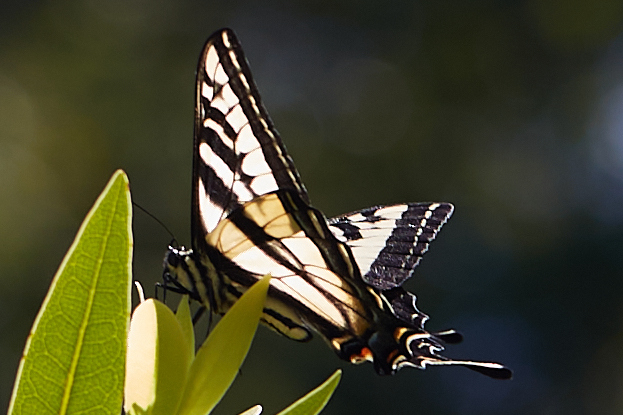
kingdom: Animalia
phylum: Arthropoda
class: Insecta
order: Lepidoptera
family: Papilionidae
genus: Papilio
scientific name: Papilio eurymedon
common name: Pale tiger swallowtail
